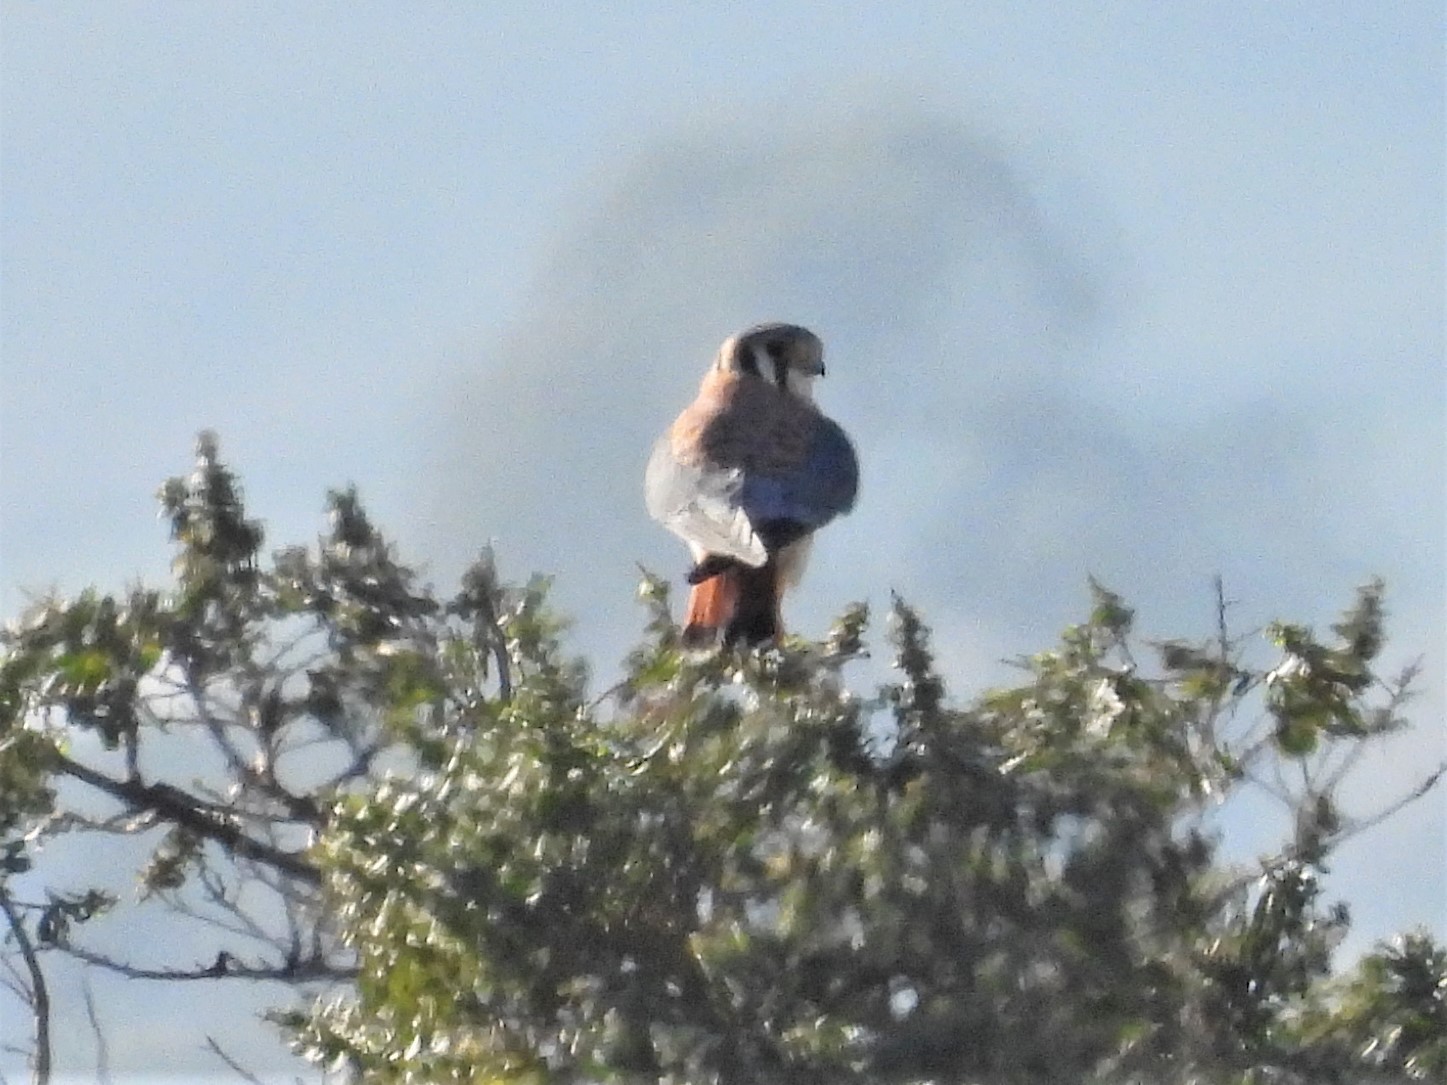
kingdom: Animalia
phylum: Chordata
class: Aves
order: Falconiformes
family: Falconidae
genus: Falco
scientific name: Falco sparverius
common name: American kestrel
